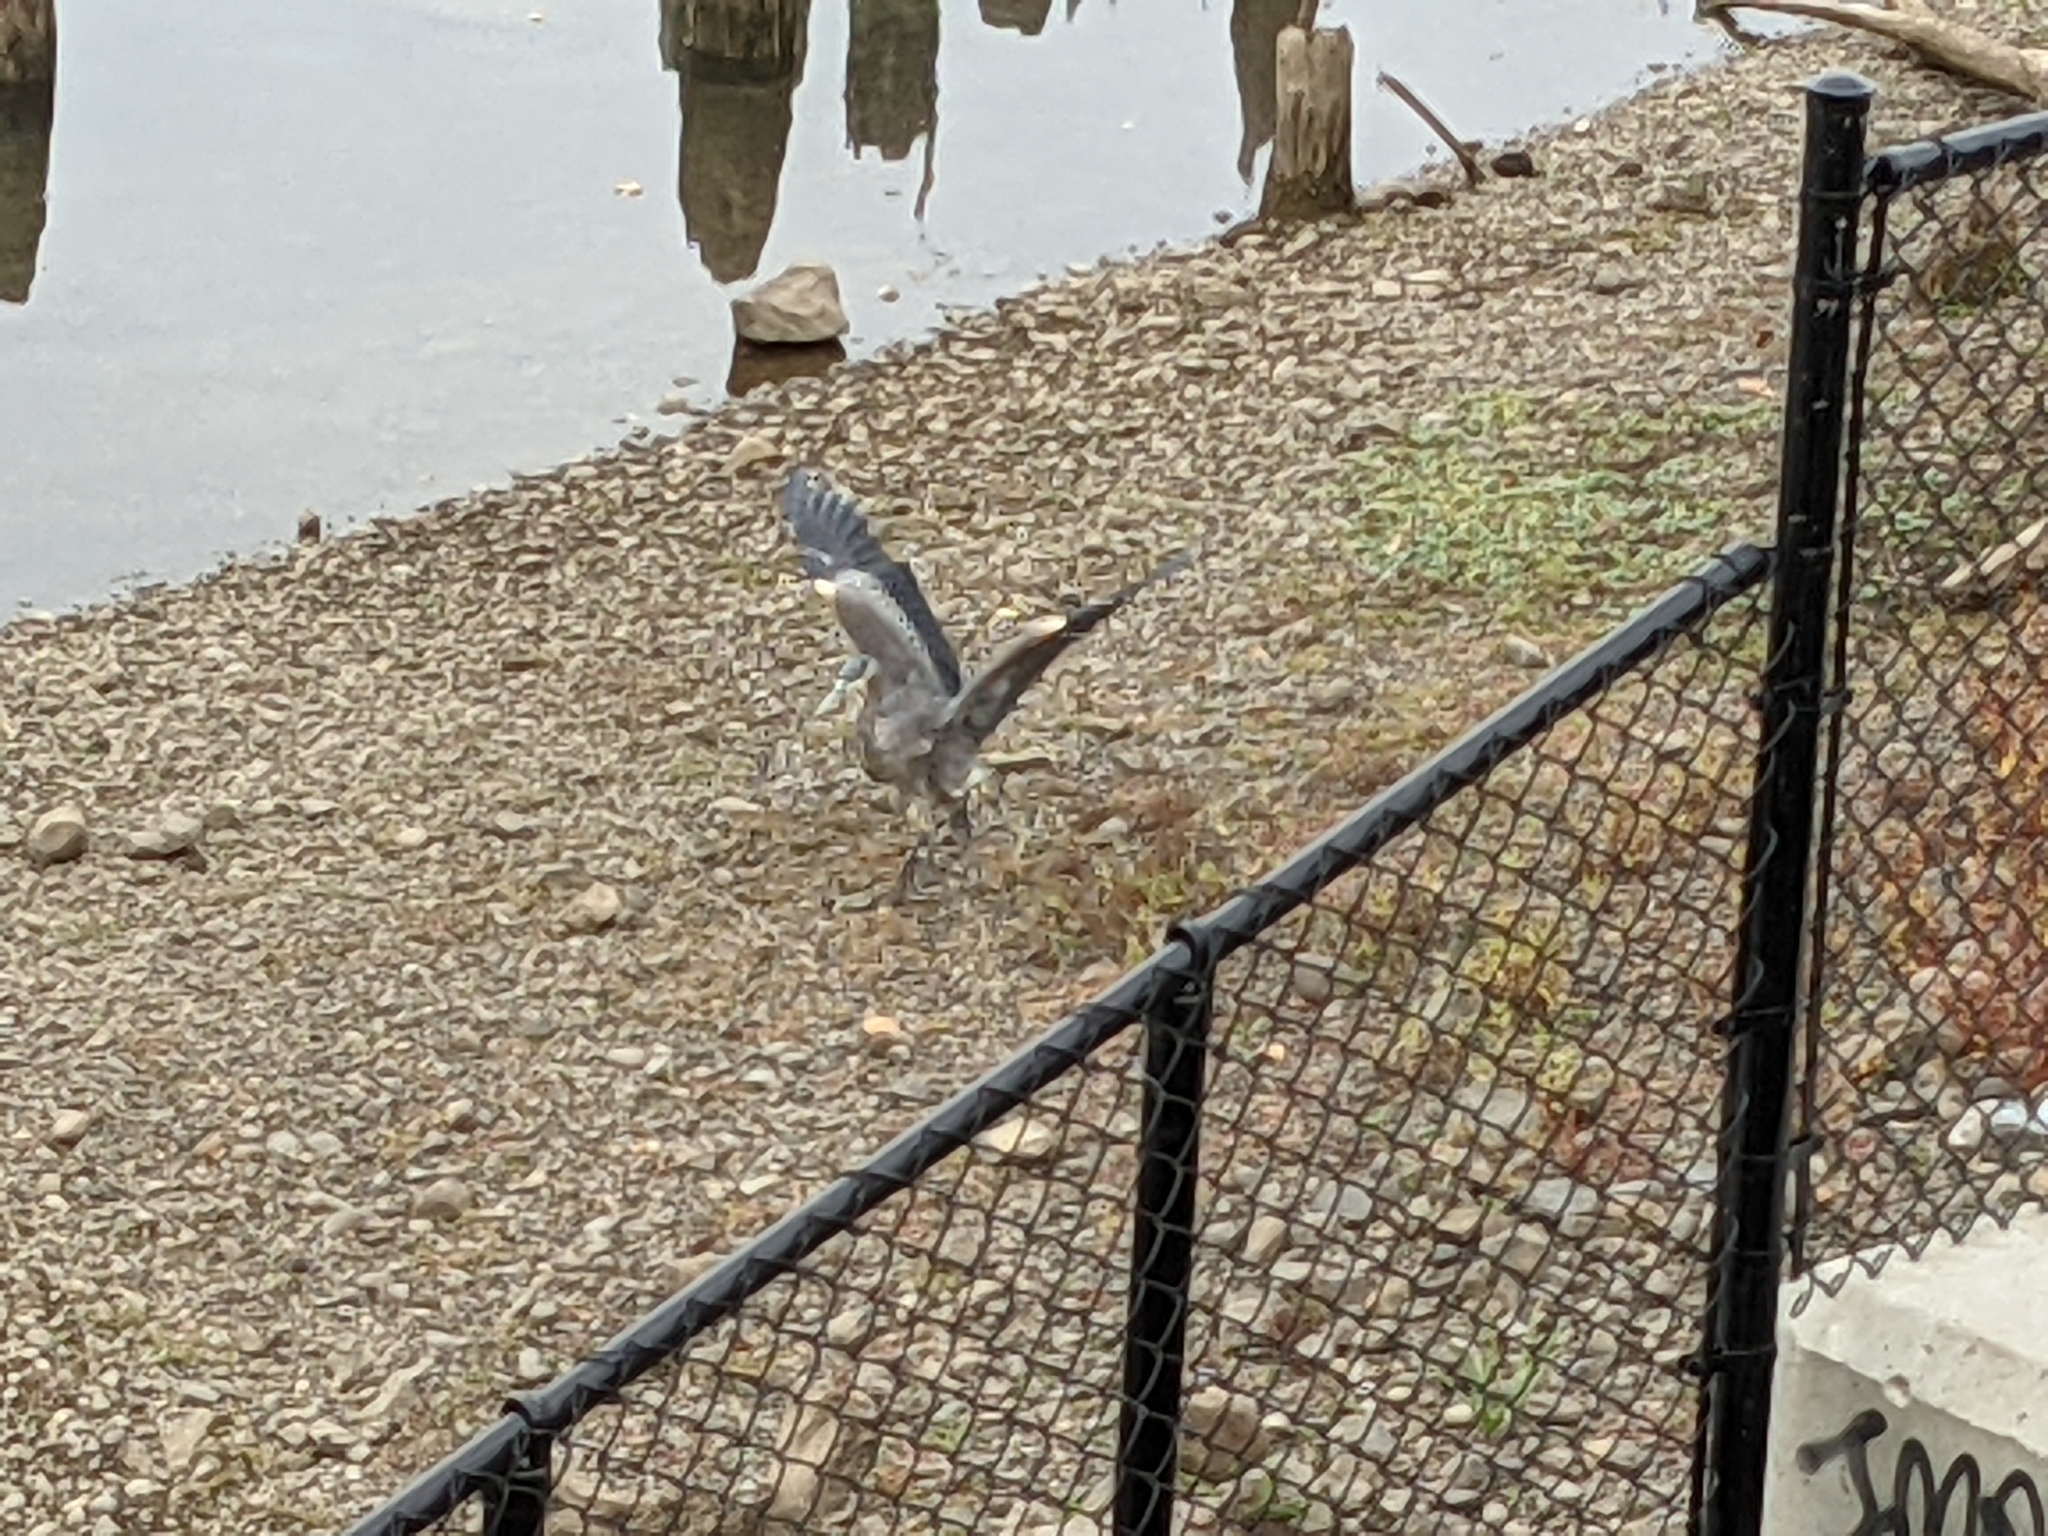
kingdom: Animalia
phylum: Chordata
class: Aves
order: Pelecaniformes
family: Ardeidae
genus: Ardea
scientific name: Ardea herodias
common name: Great blue heron
